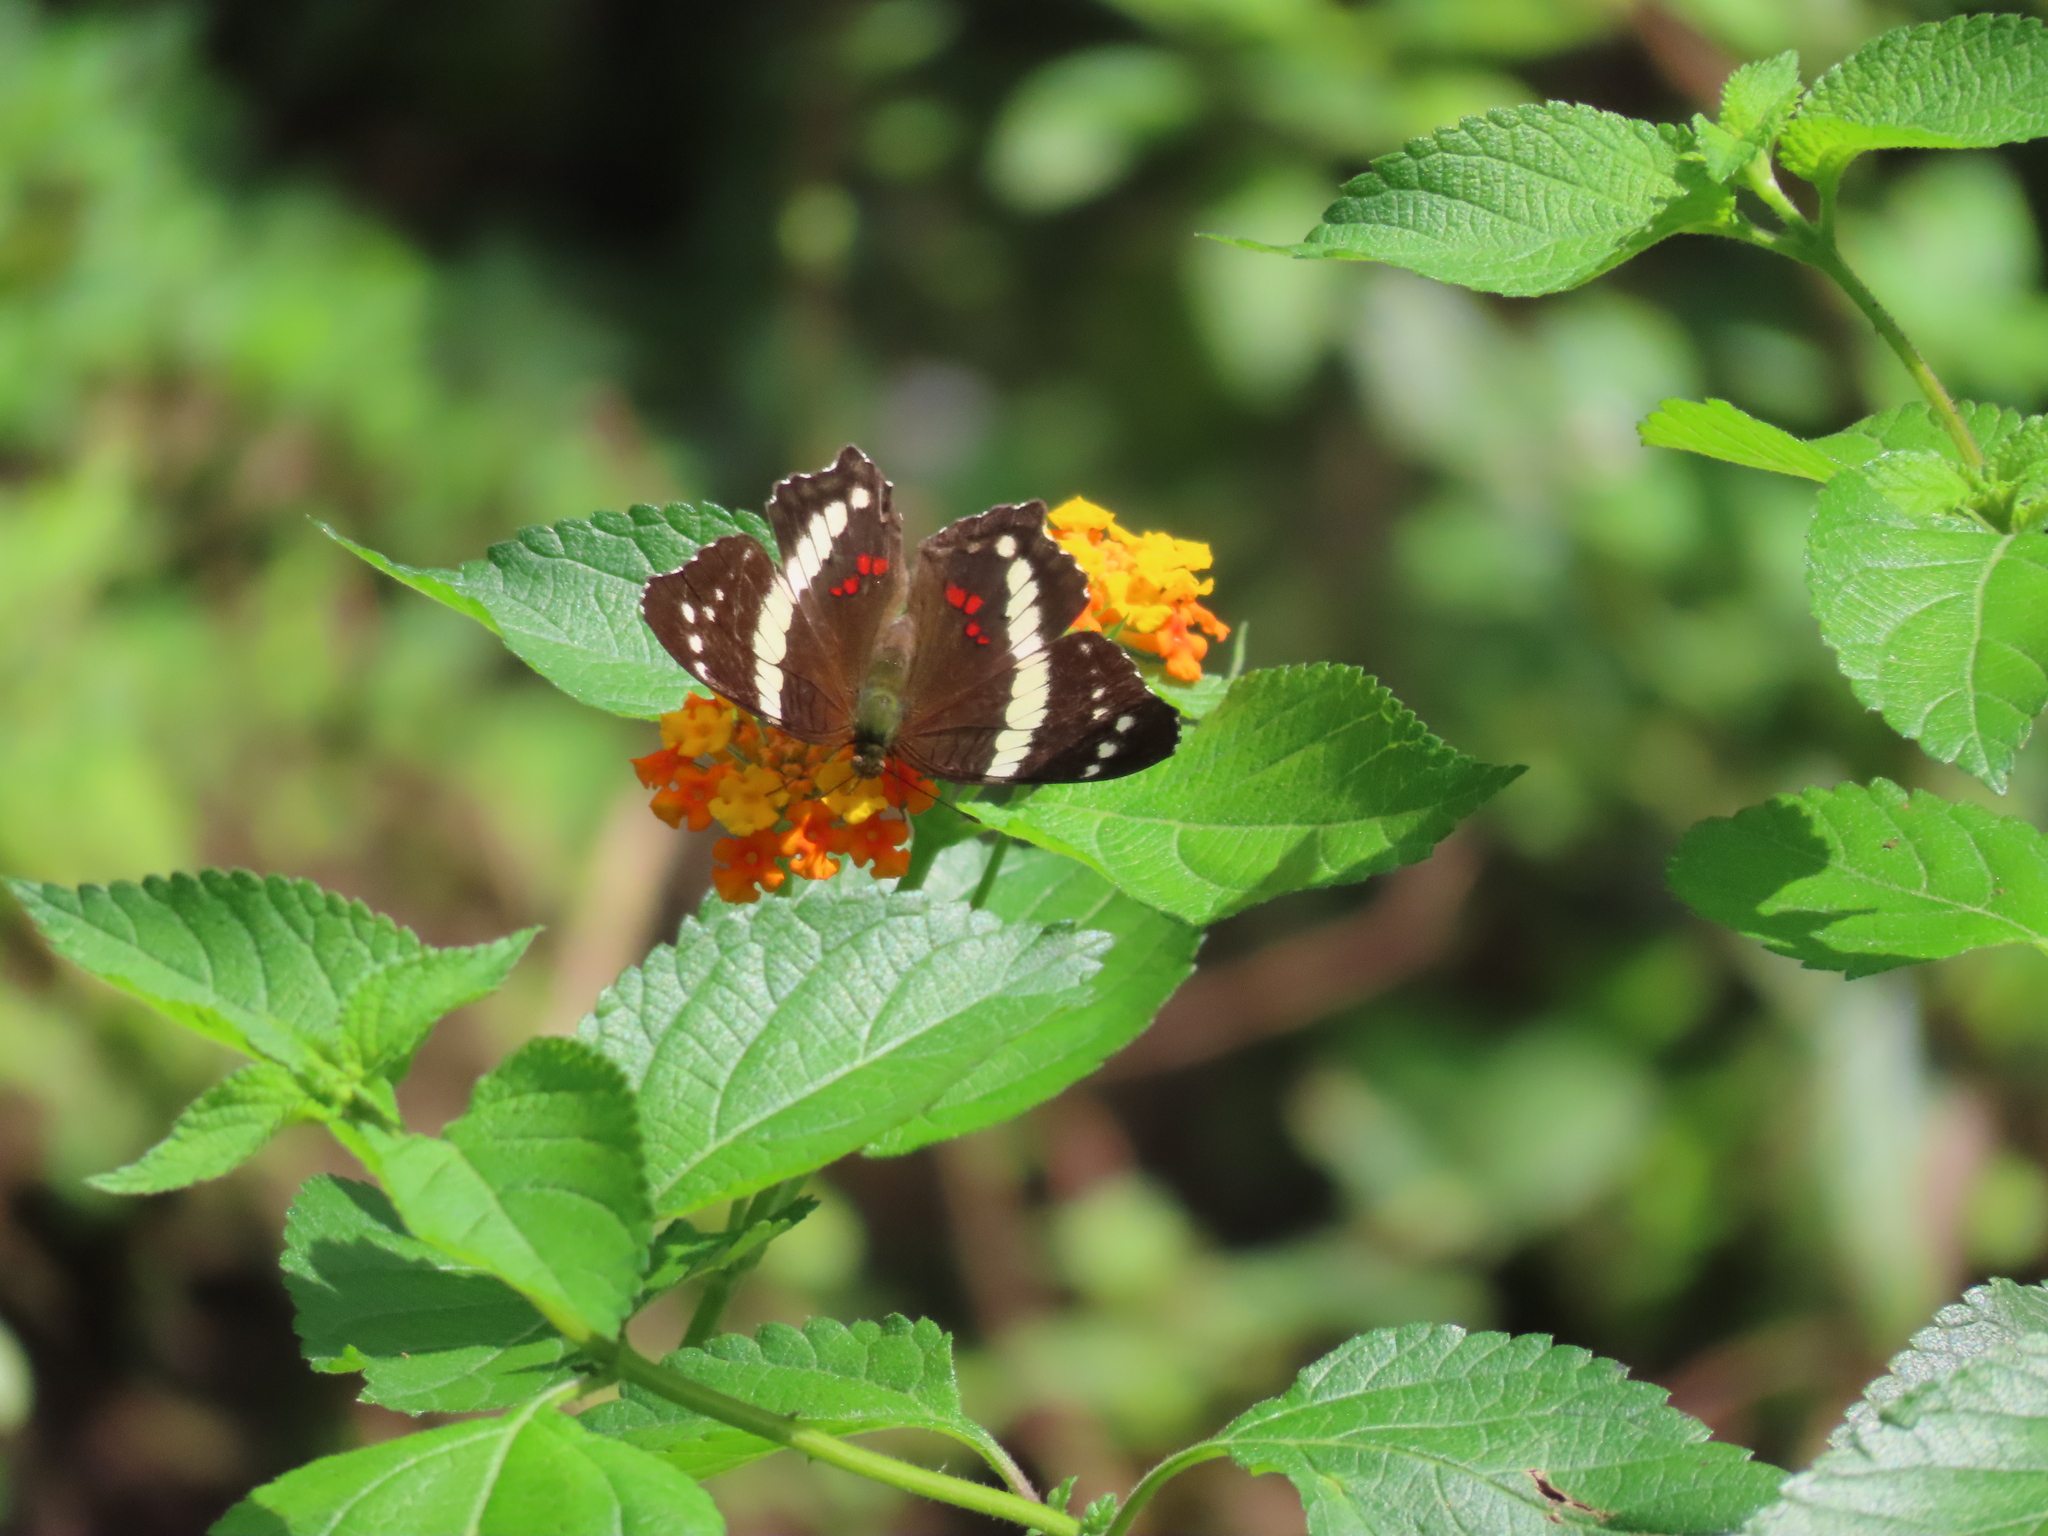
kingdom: Animalia
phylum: Arthropoda
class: Insecta
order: Lepidoptera
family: Nymphalidae
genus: Anartia
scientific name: Anartia fatima
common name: Banded peacock
